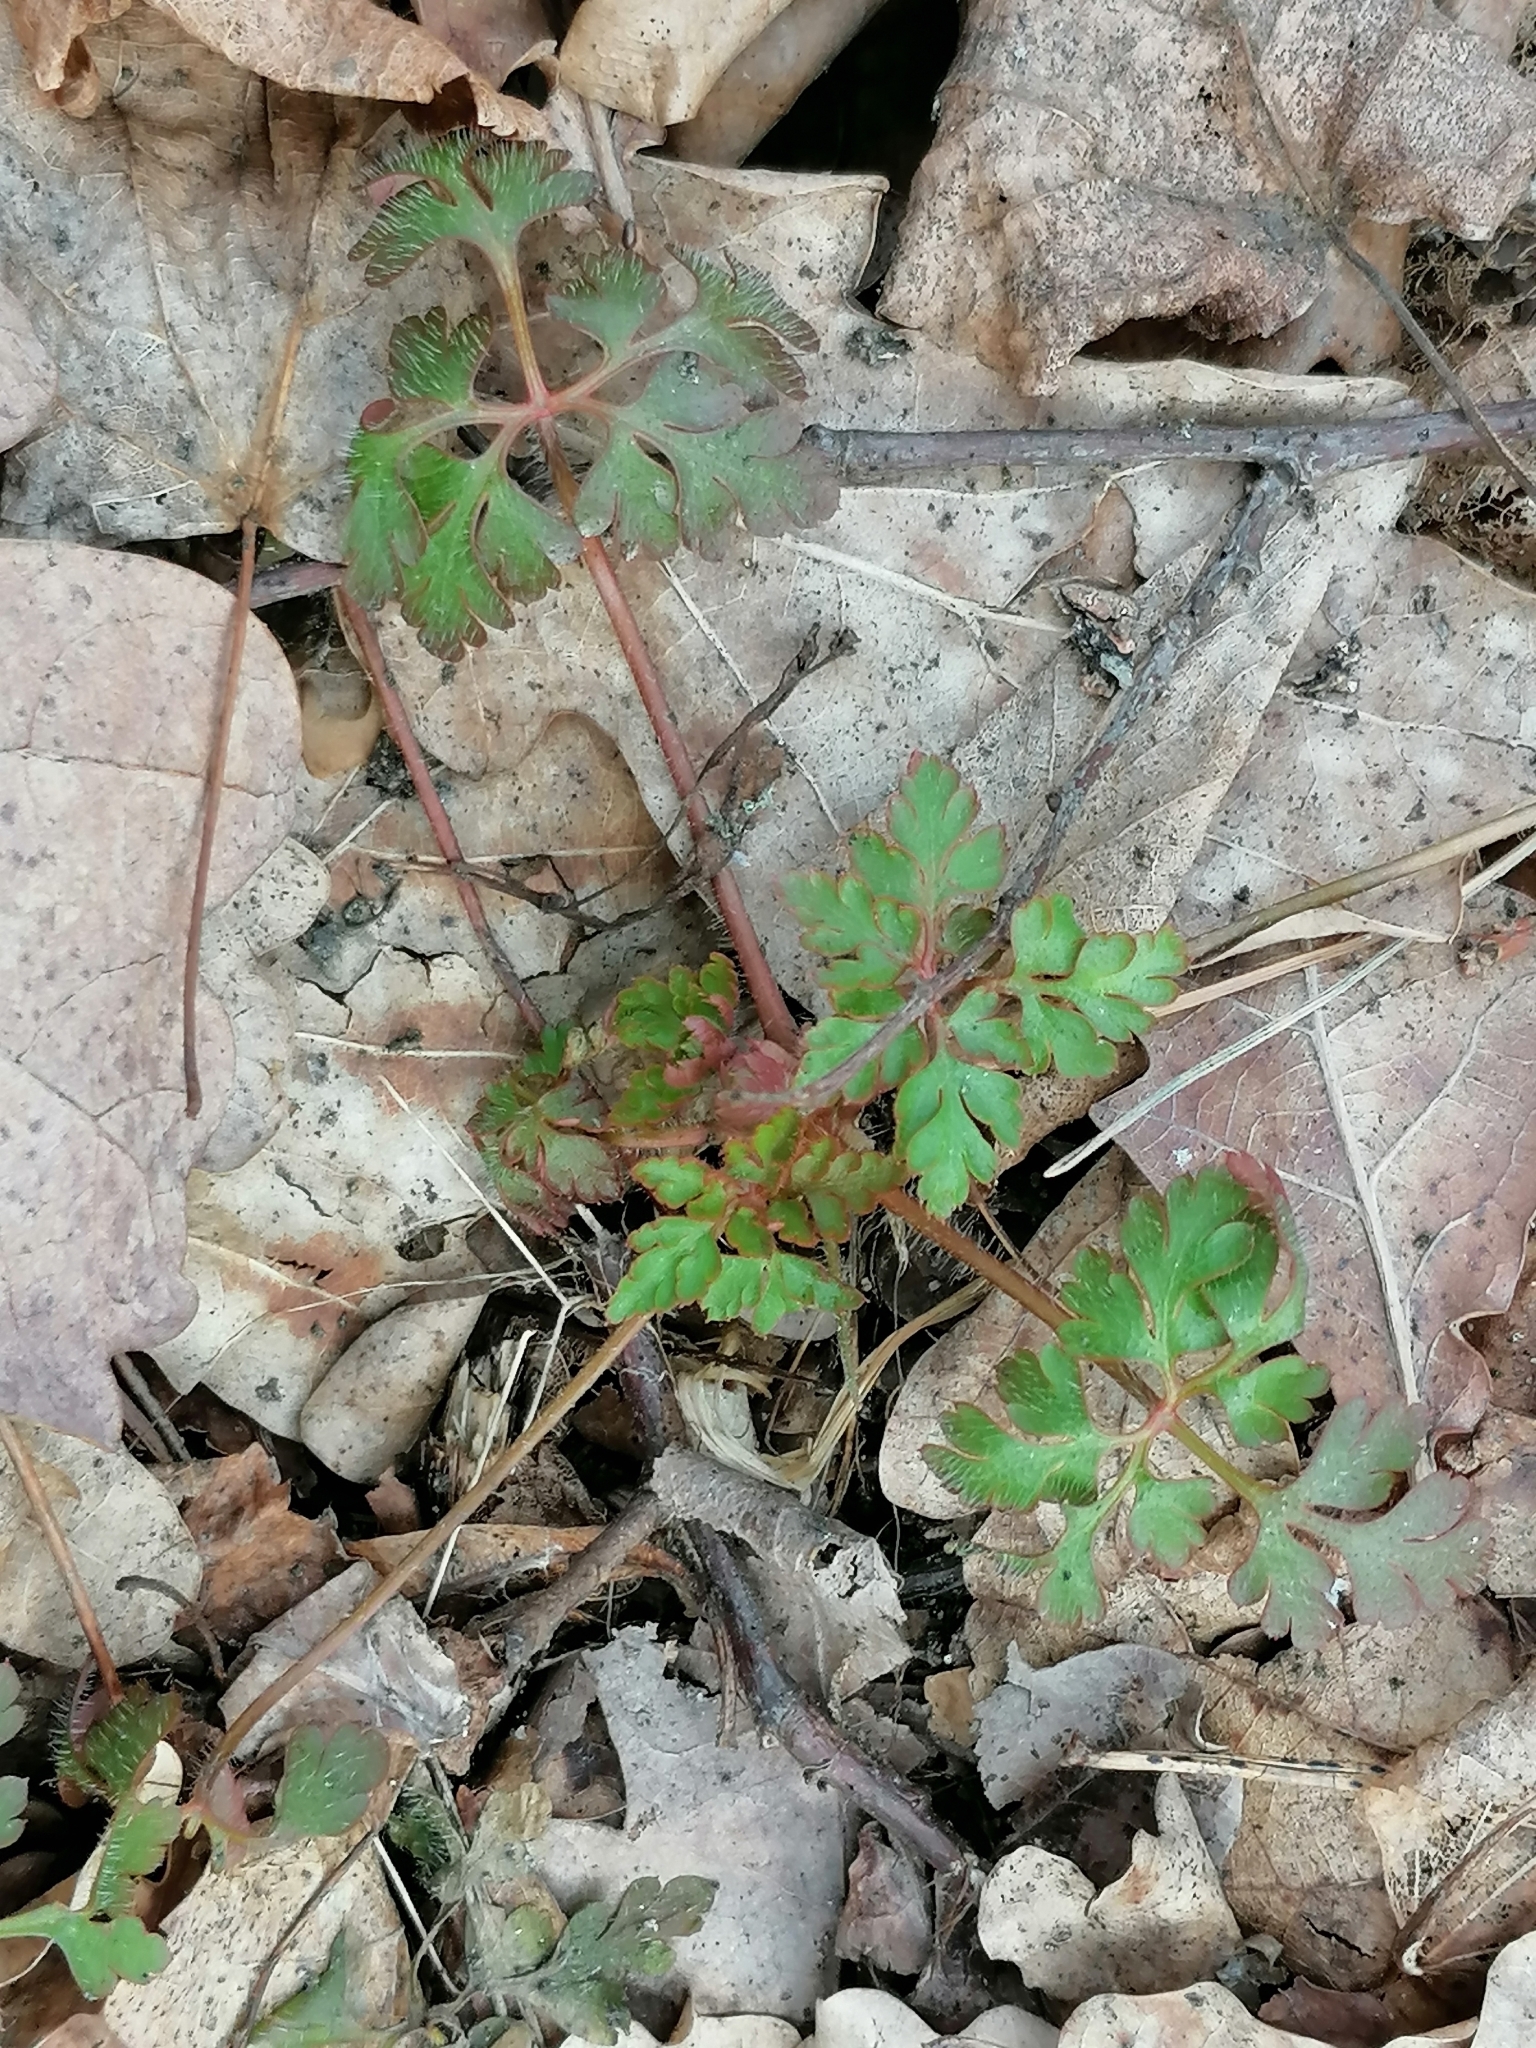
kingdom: Plantae
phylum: Tracheophyta
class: Magnoliopsida
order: Geraniales
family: Geraniaceae
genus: Geranium
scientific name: Geranium robertianum
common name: Herb-robert
